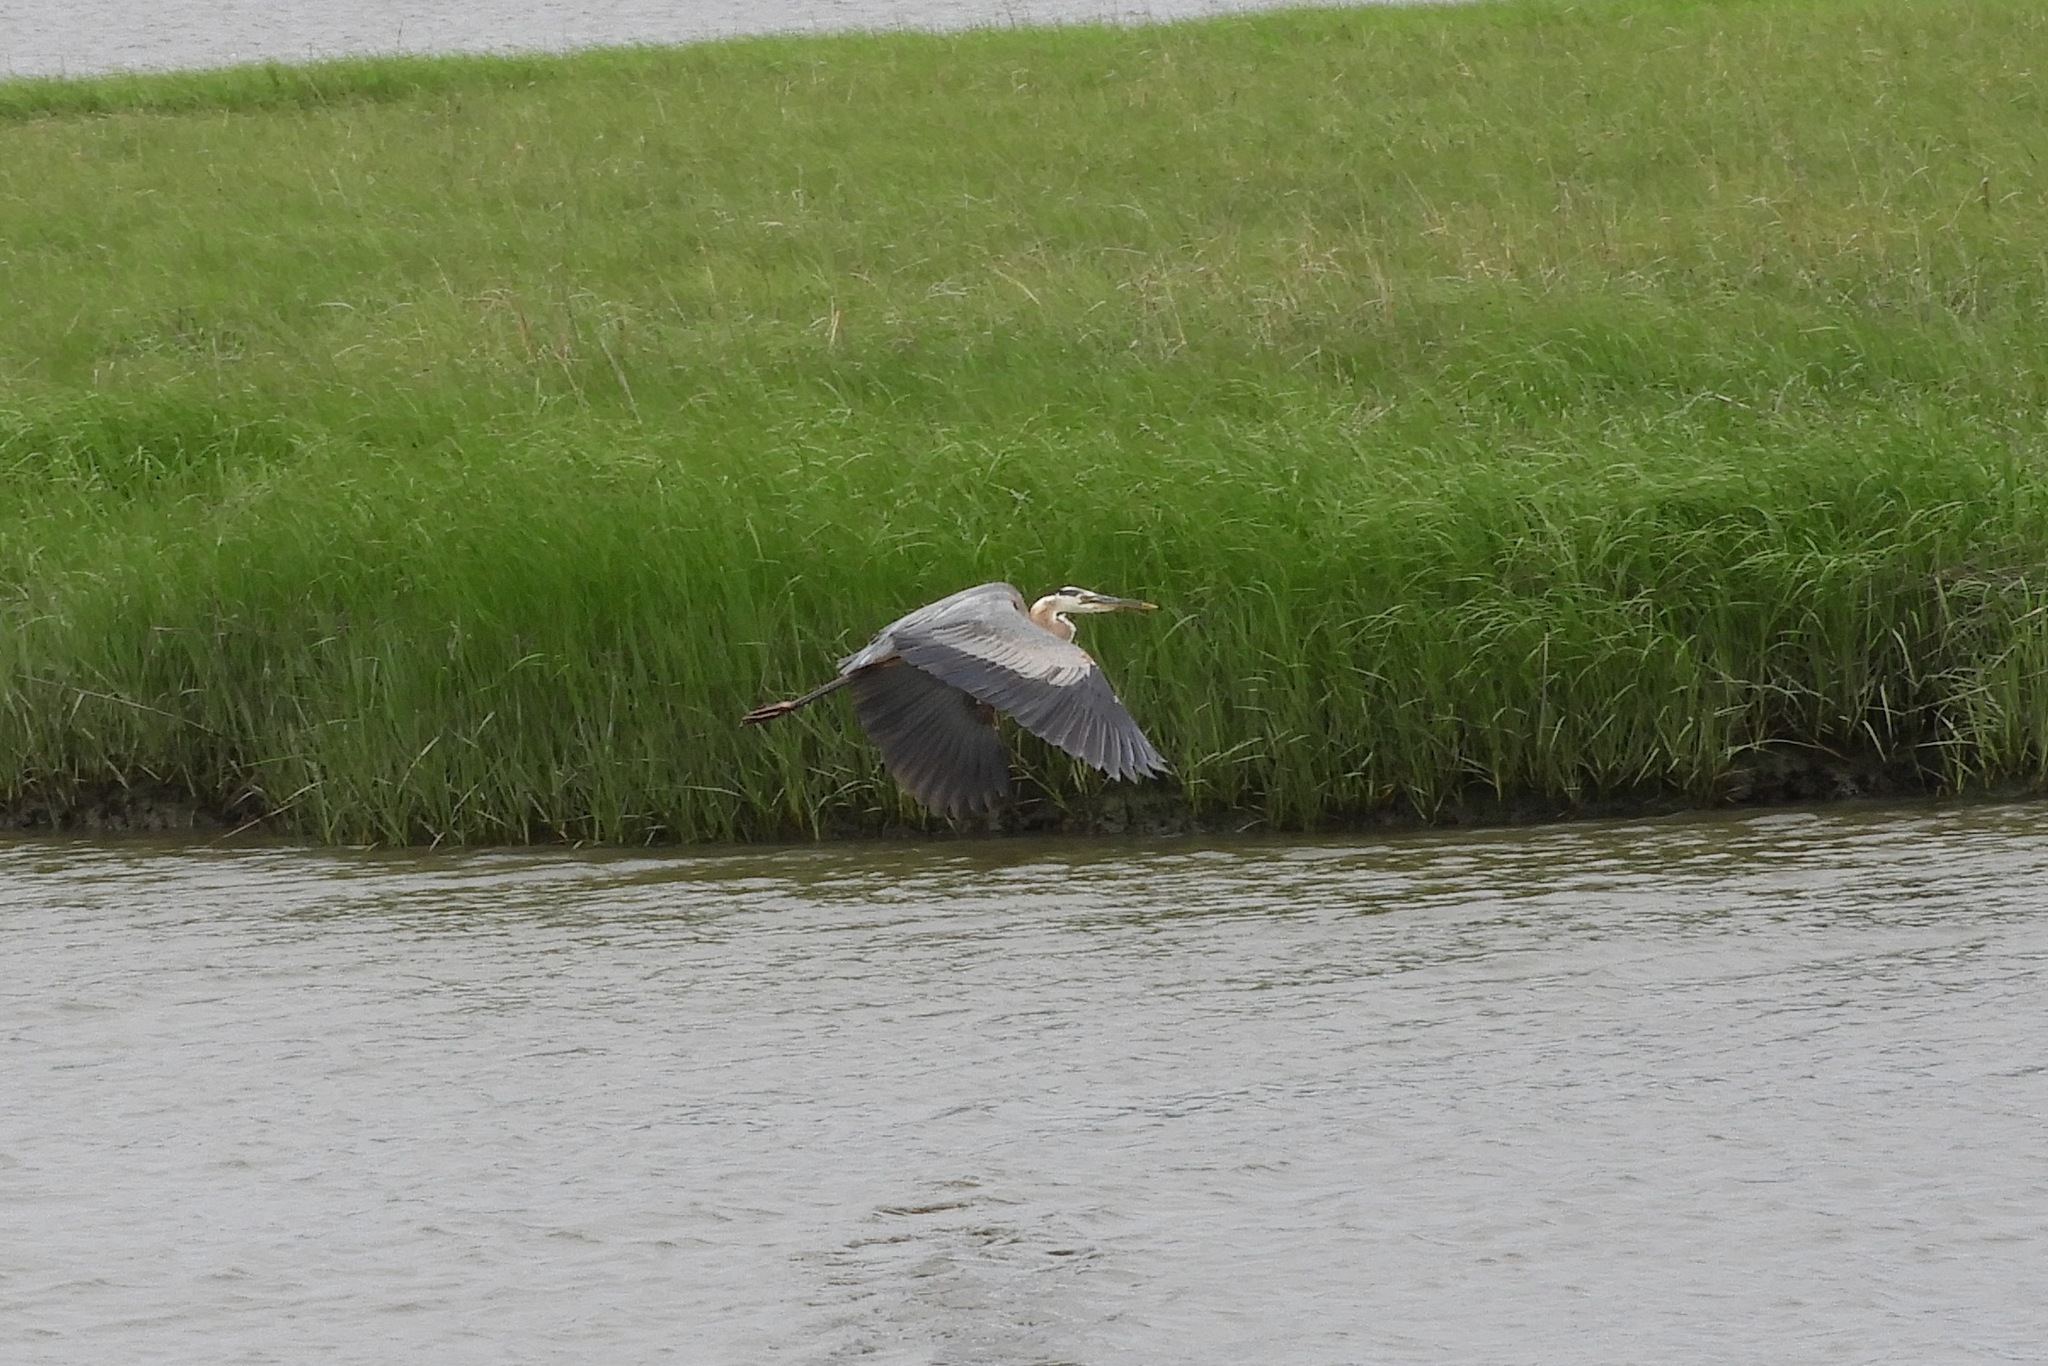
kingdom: Animalia
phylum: Chordata
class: Aves
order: Pelecaniformes
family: Ardeidae
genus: Ardea
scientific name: Ardea herodias
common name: Great blue heron
